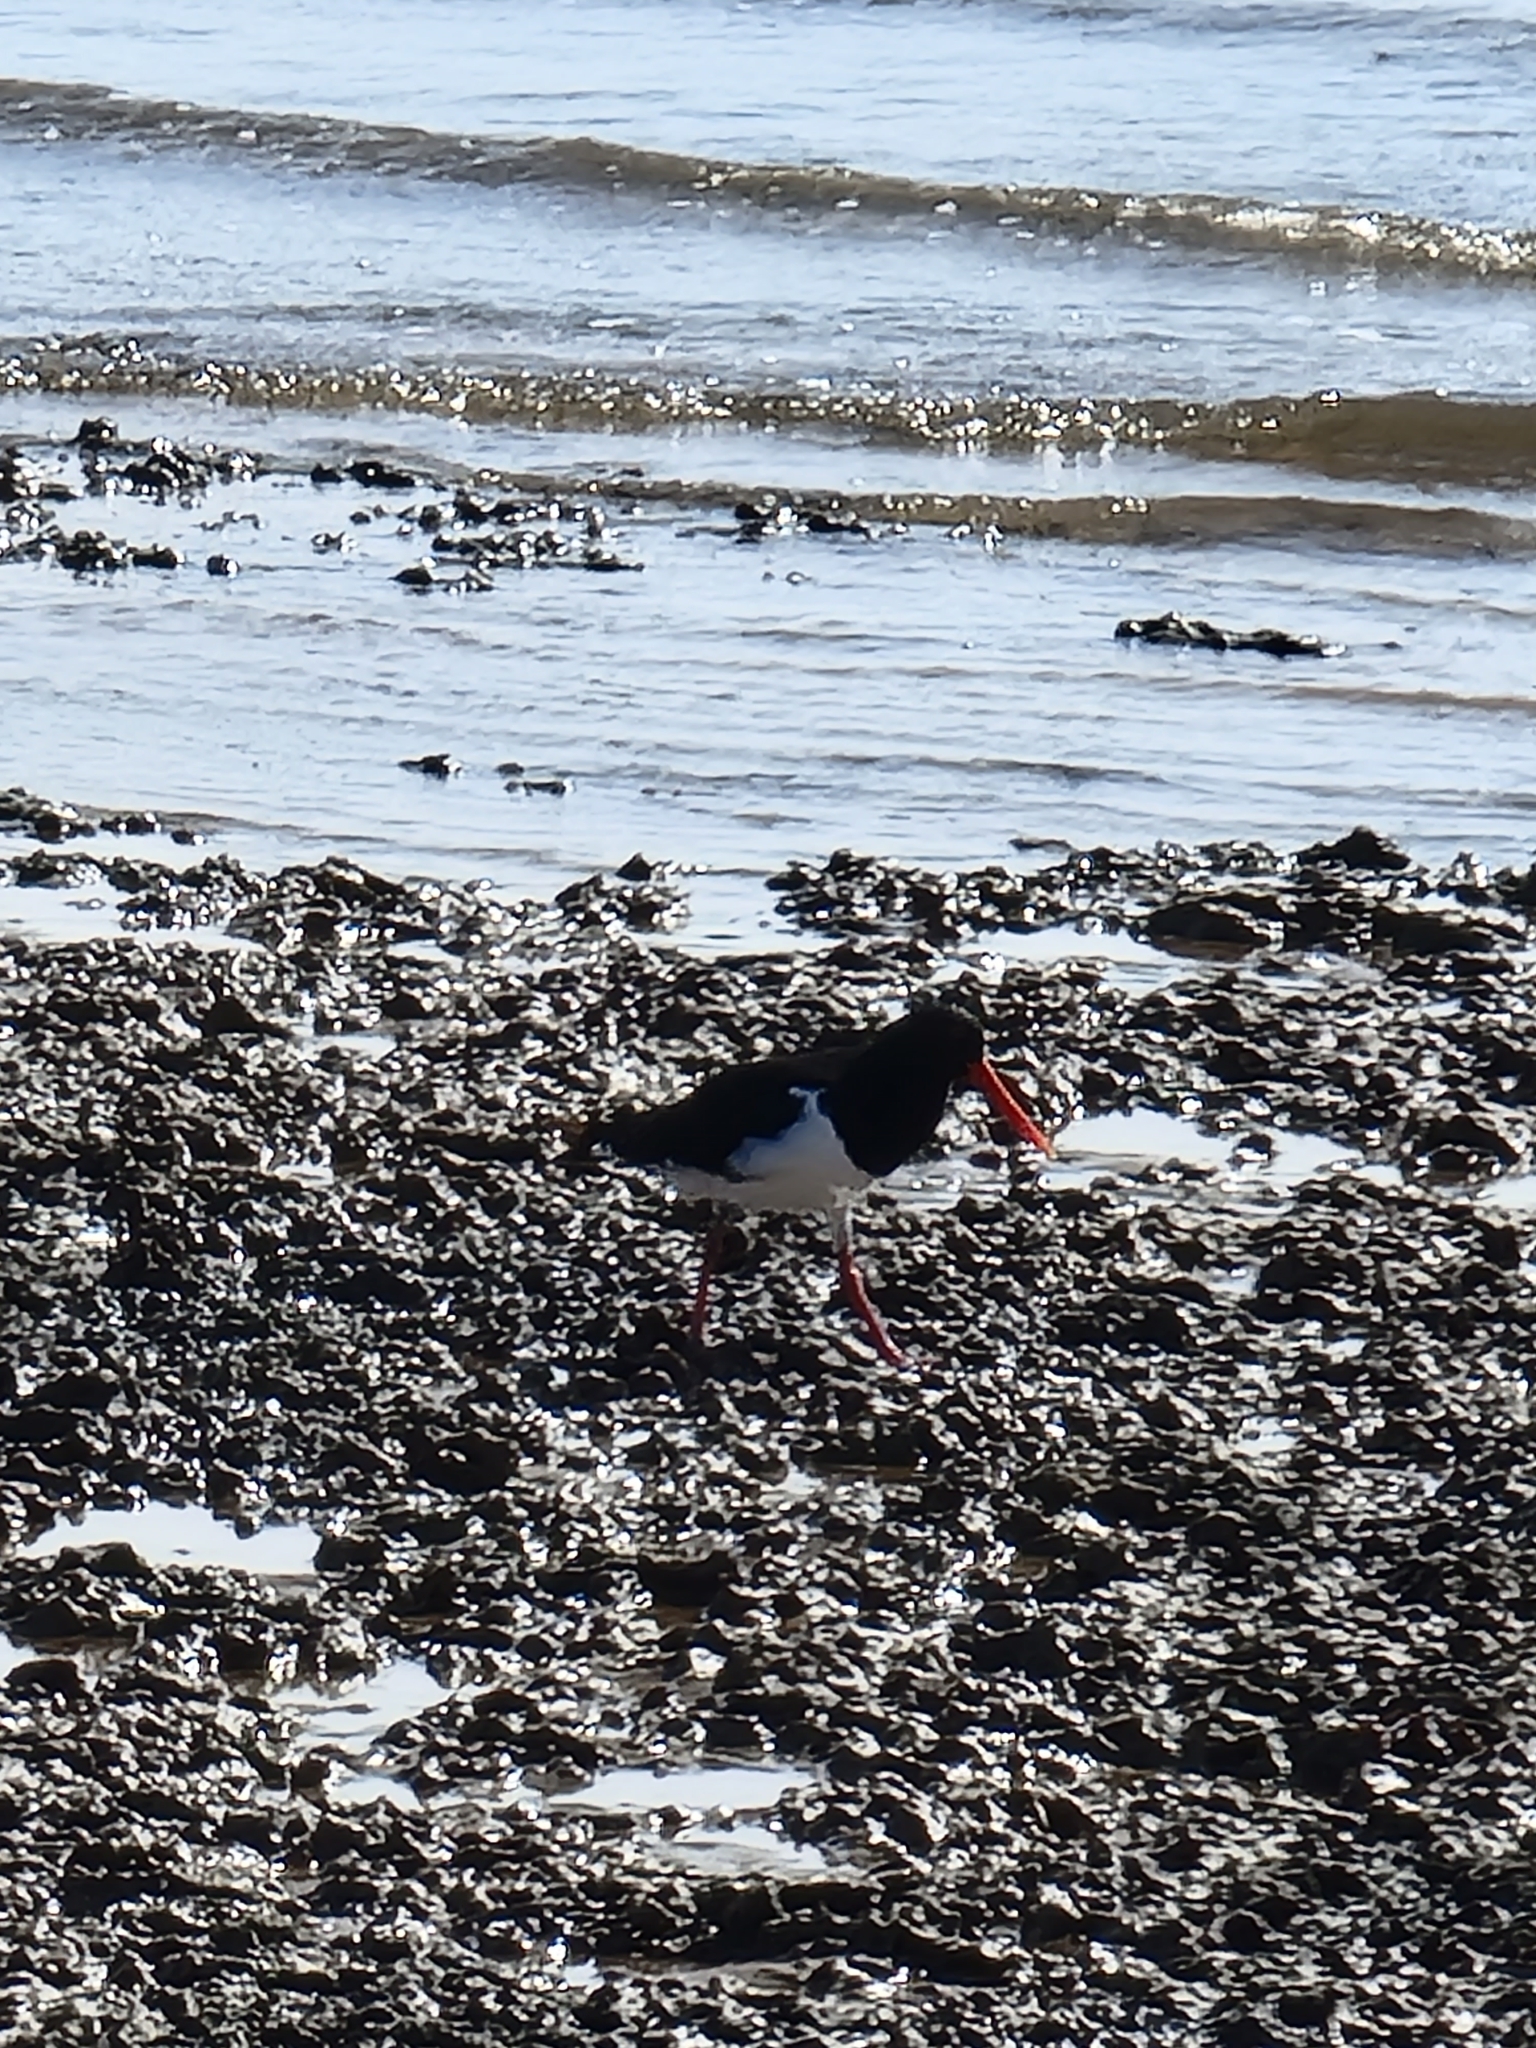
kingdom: Animalia
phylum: Chordata
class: Aves
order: Charadriiformes
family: Haematopodidae
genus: Haematopus
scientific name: Haematopus longirostris
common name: Pied oystercatcher
